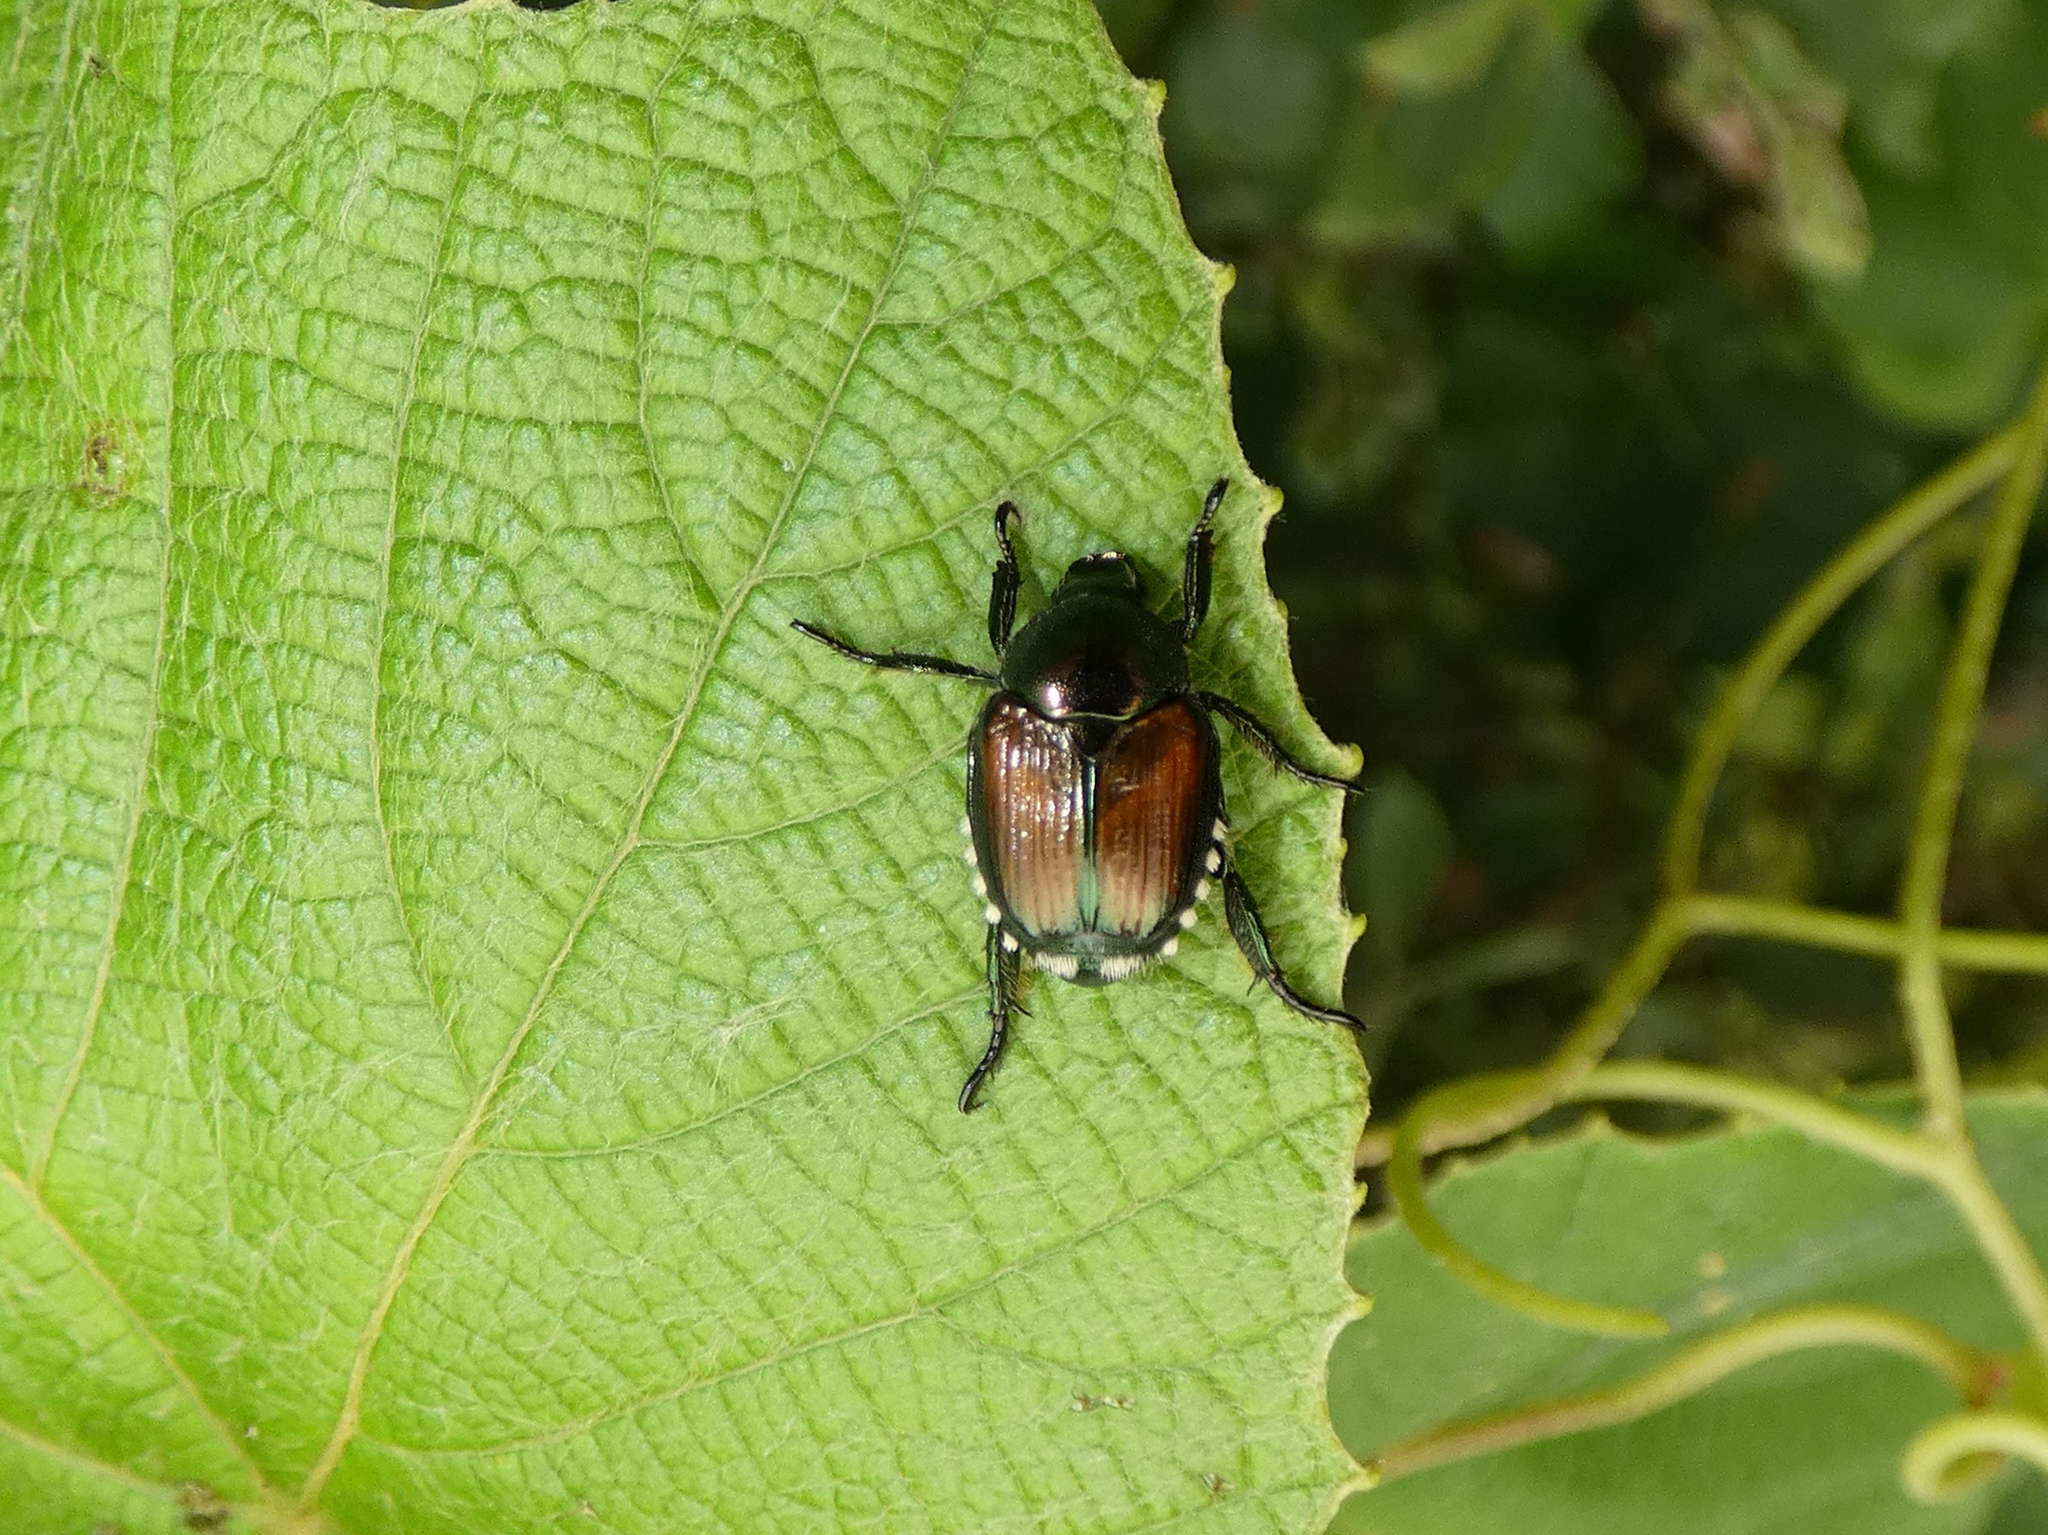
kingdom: Animalia
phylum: Arthropoda
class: Insecta
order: Coleoptera
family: Scarabaeidae
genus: Popillia
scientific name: Popillia japonica
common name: Japanese beetle
